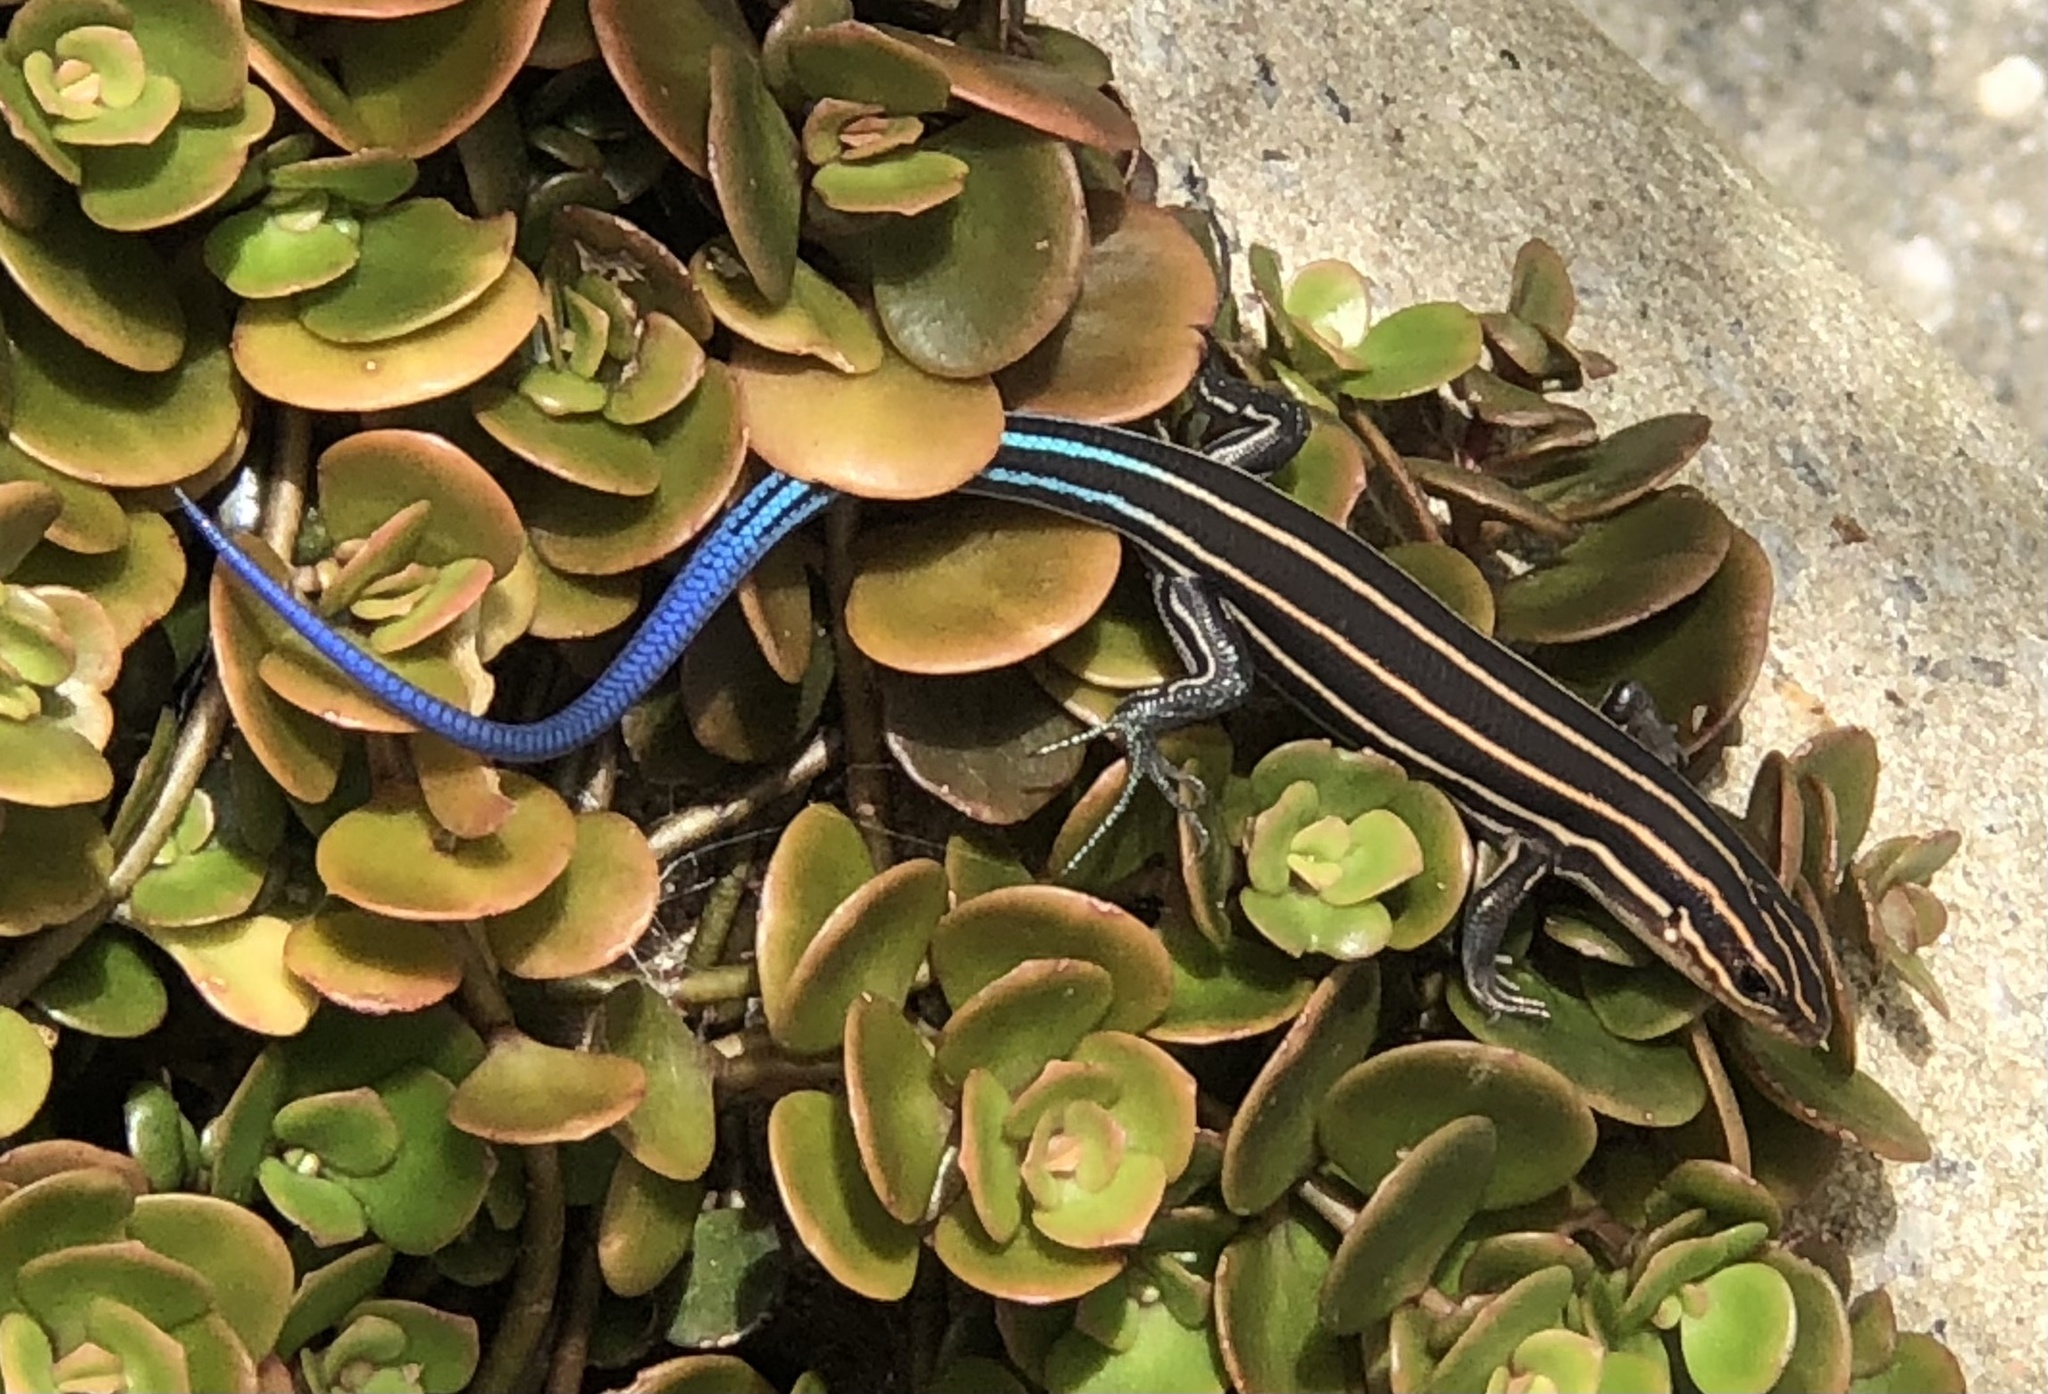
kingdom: Animalia
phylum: Chordata
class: Squamata
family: Scincidae
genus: Plestiodon
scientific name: Plestiodon fasciatus
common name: Five-lined skink
